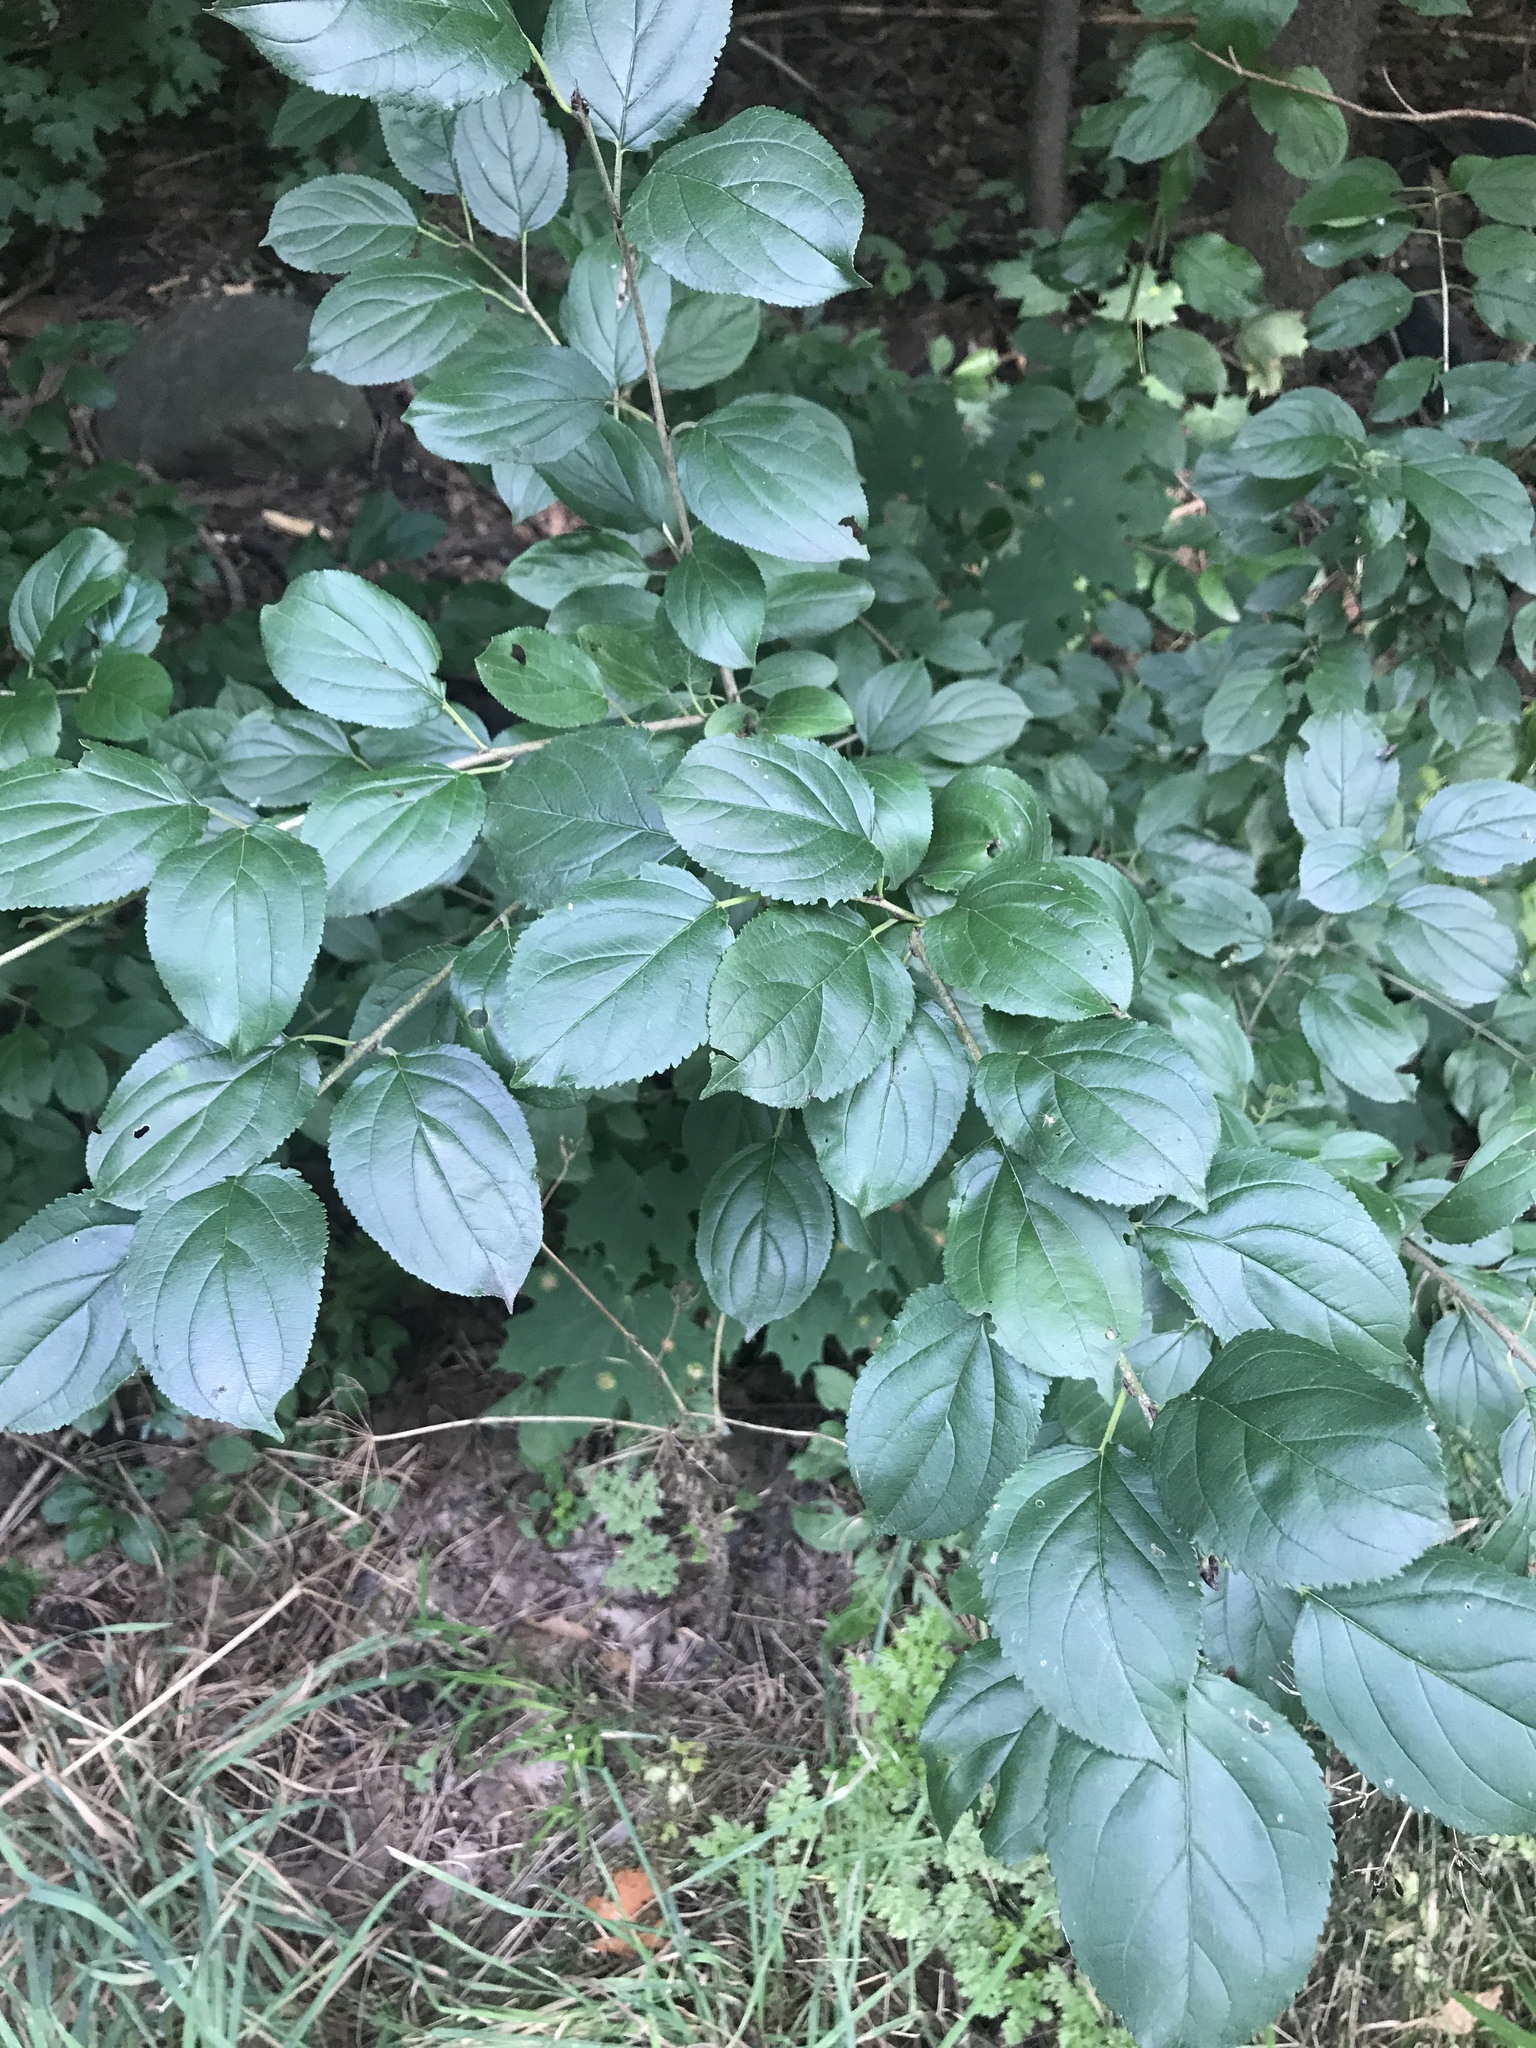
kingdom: Plantae
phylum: Tracheophyta
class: Magnoliopsida
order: Rosales
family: Rhamnaceae
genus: Rhamnus
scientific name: Rhamnus cathartica
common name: Common buckthorn
